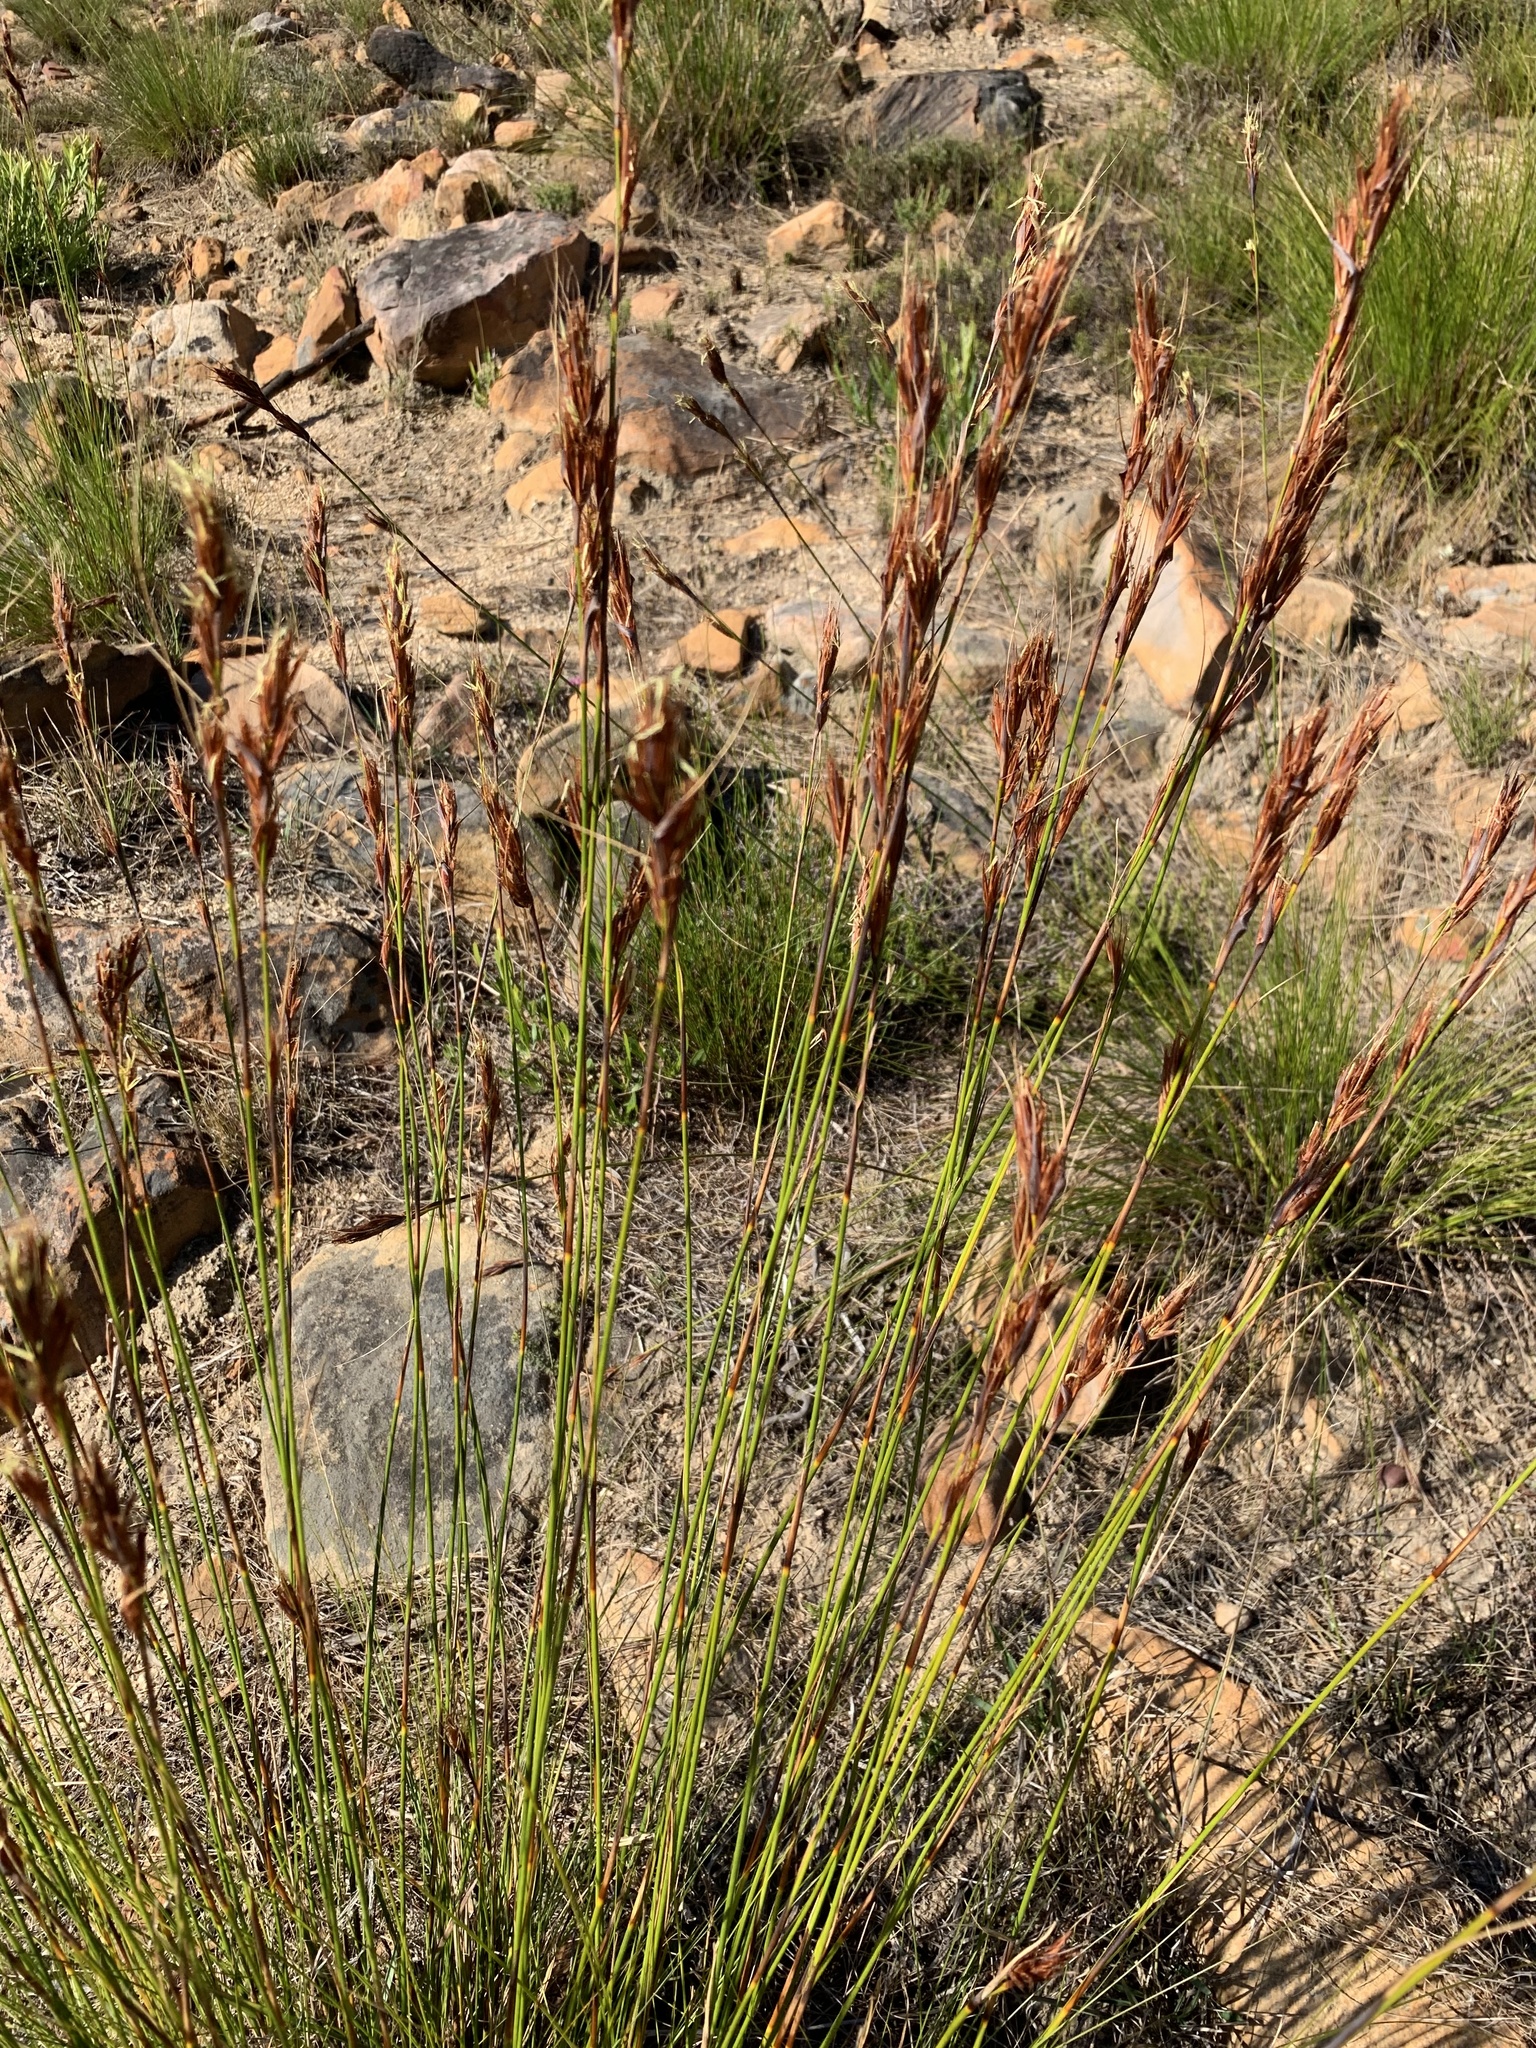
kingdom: Plantae
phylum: Tracheophyta
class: Liliopsida
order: Poales
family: Cyperaceae
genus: Tetraria
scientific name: Tetraria ustulata
